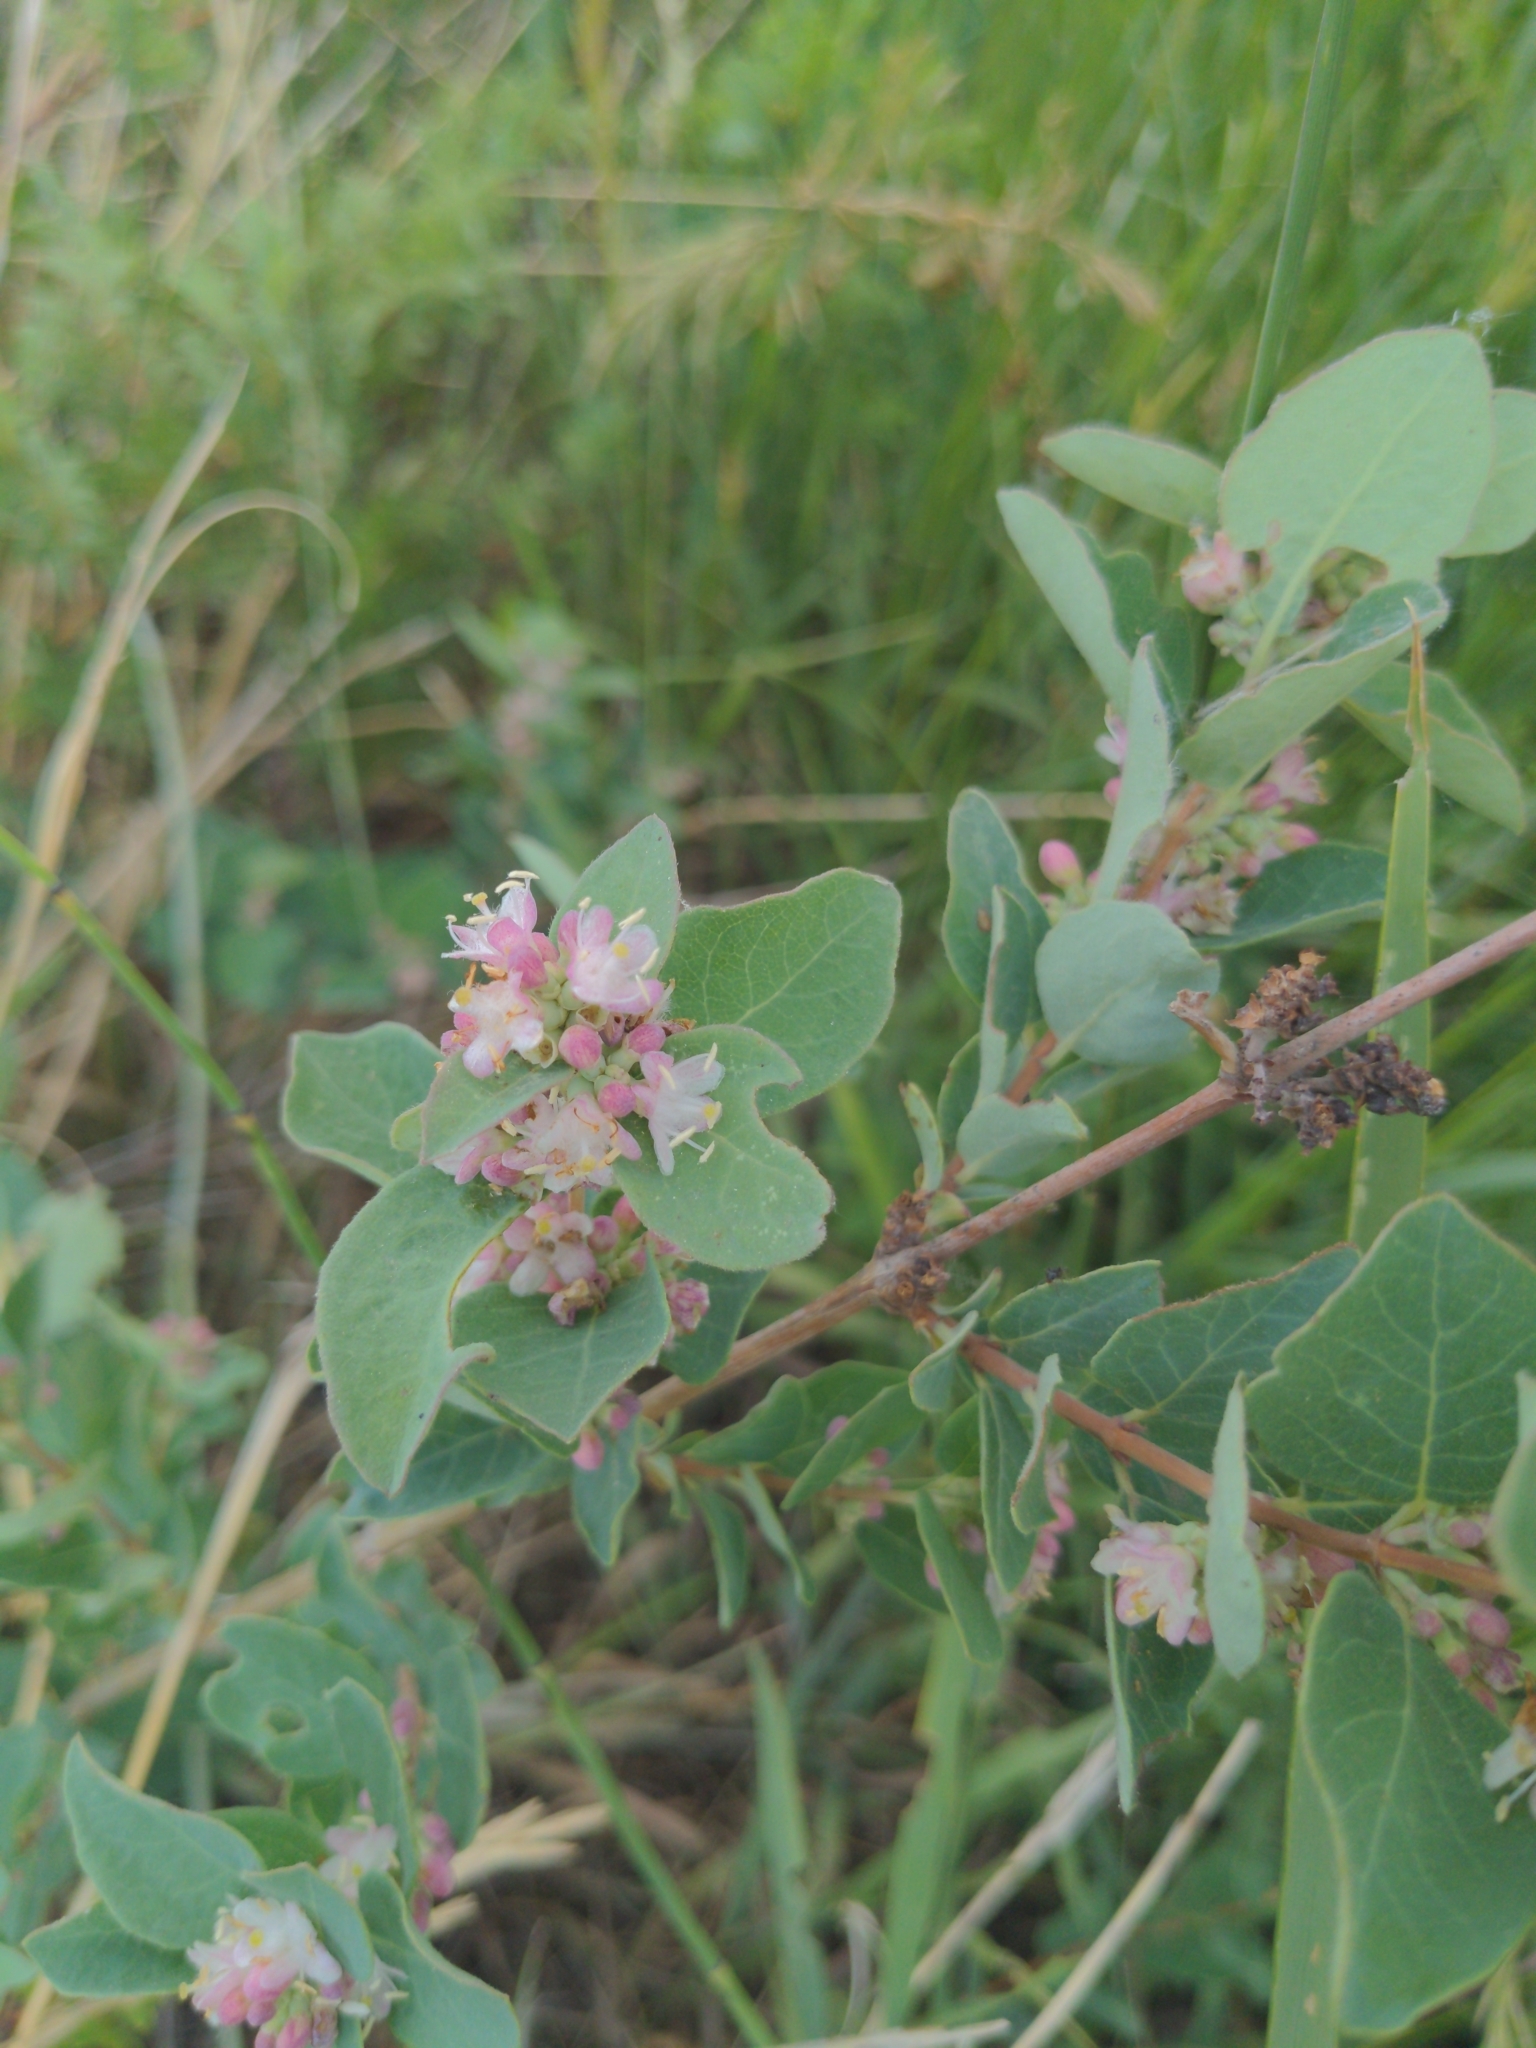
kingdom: Plantae
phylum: Tracheophyta
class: Magnoliopsida
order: Dipsacales
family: Caprifoliaceae
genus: Symphoricarpos
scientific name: Symphoricarpos occidentalis
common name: Wolfberry
